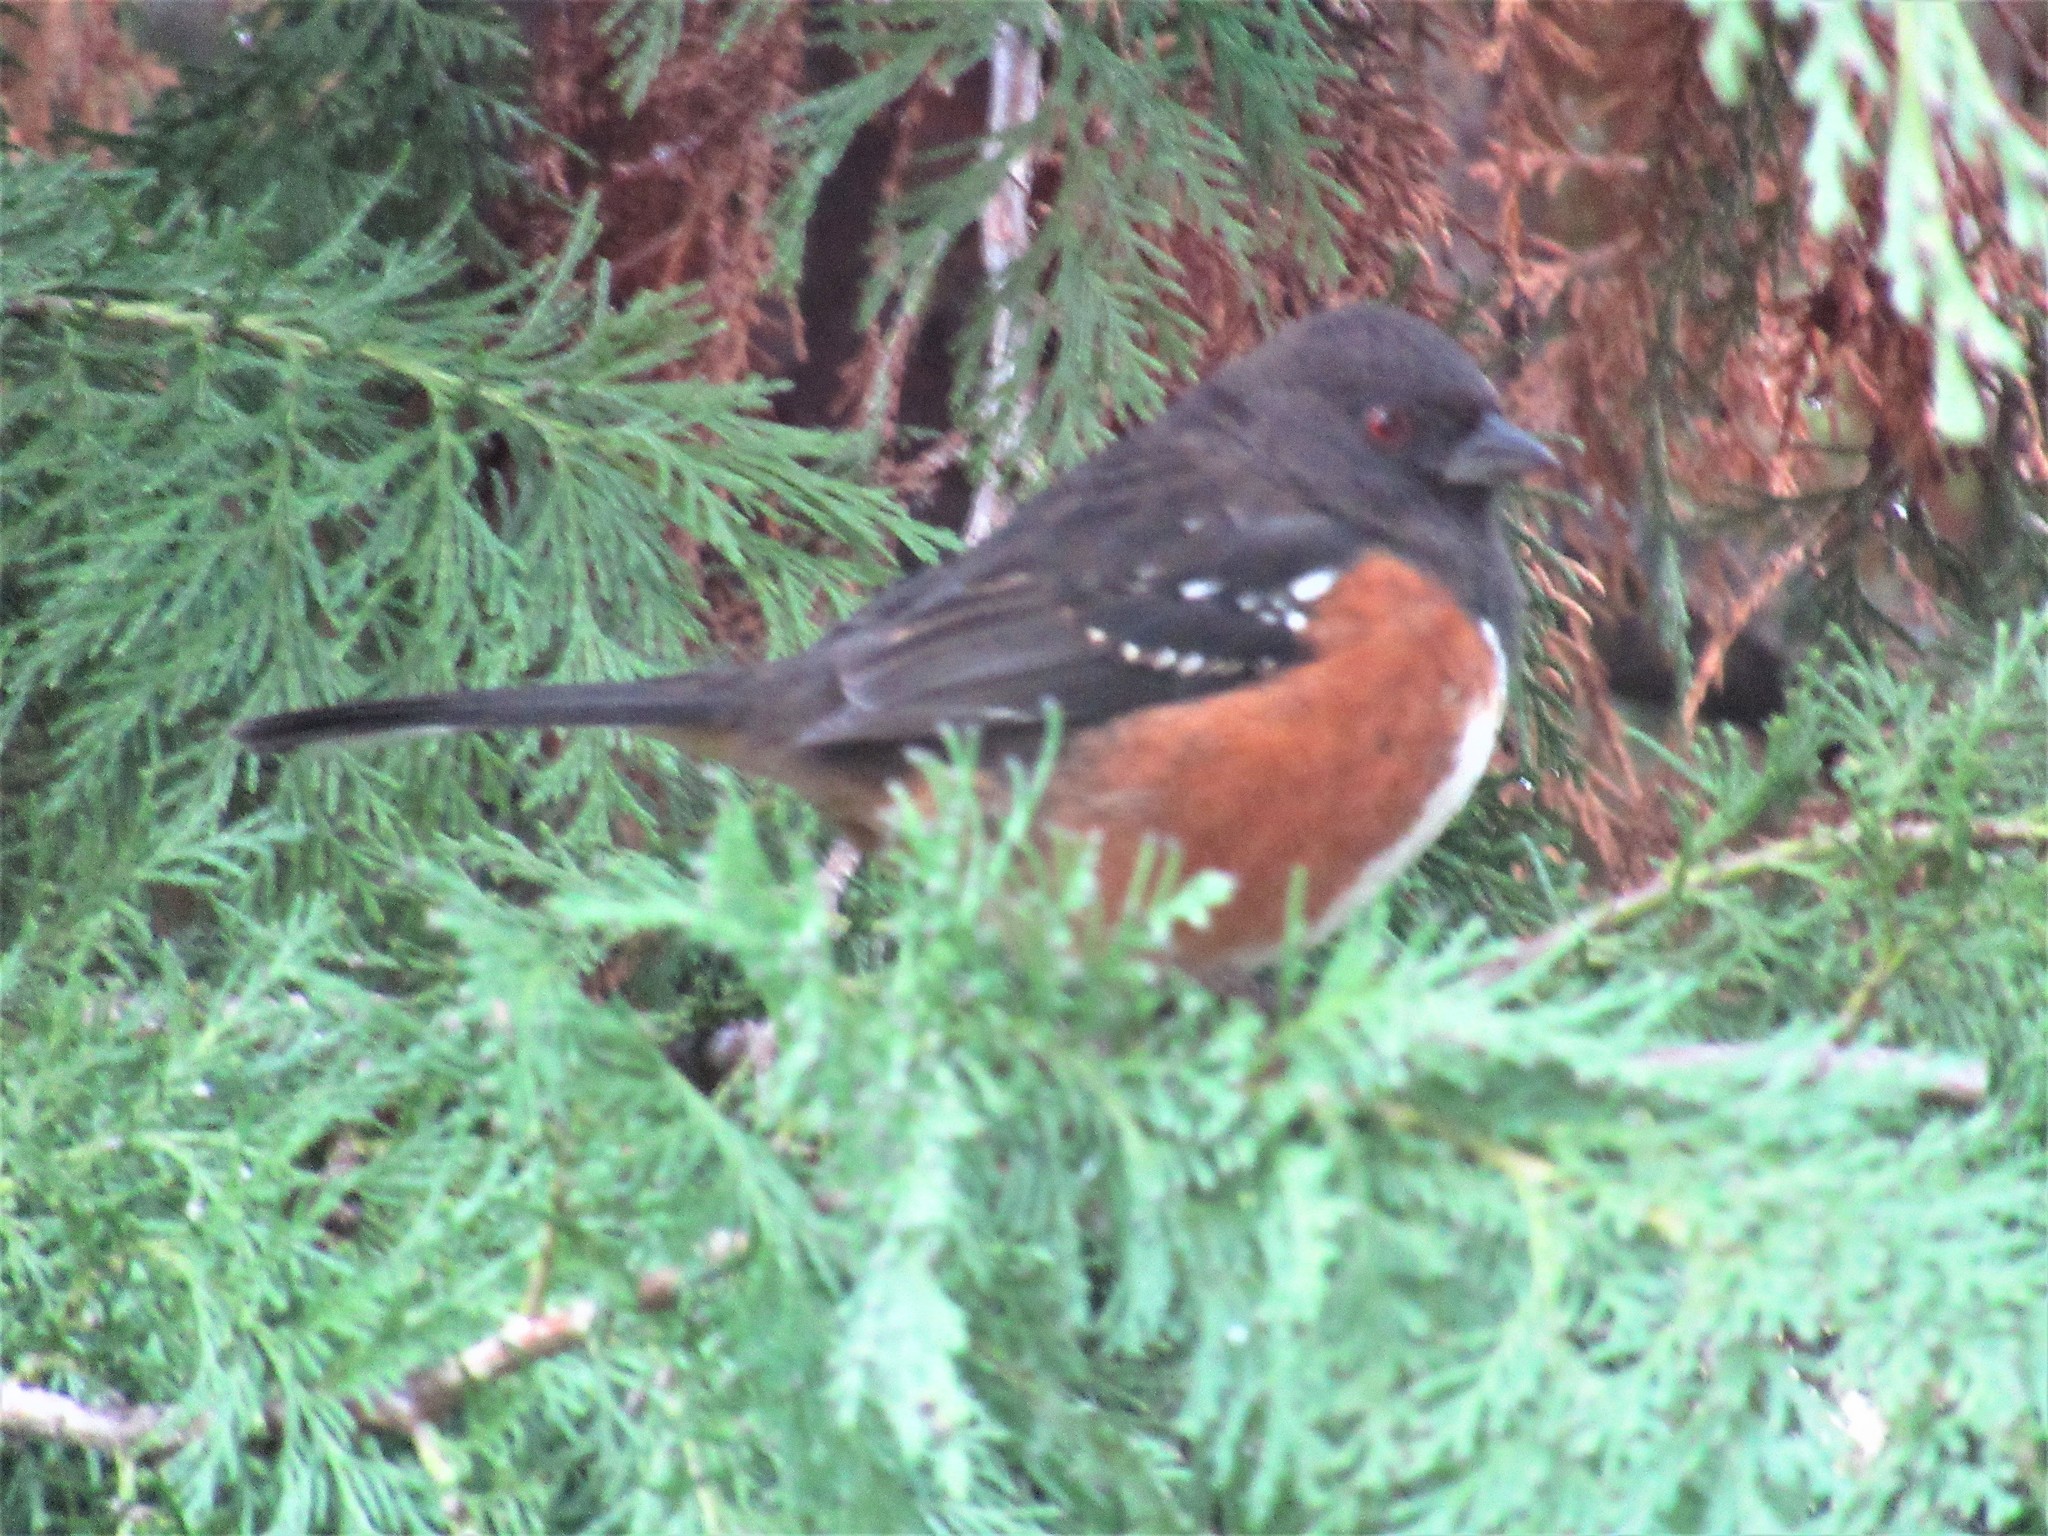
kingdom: Animalia
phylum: Chordata
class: Aves
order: Passeriformes
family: Passerellidae
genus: Pipilo
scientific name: Pipilo maculatus
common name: Spotted towhee
